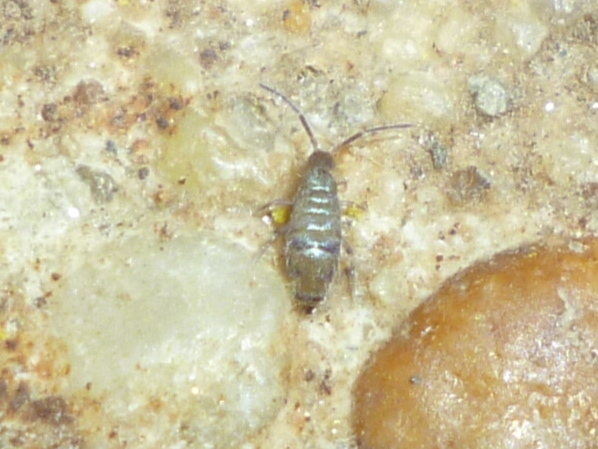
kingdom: Animalia
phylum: Arthropoda
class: Collembola
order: Entomobryomorpha
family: Entomobryidae
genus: Willowsia
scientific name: Willowsia nigromaculata
